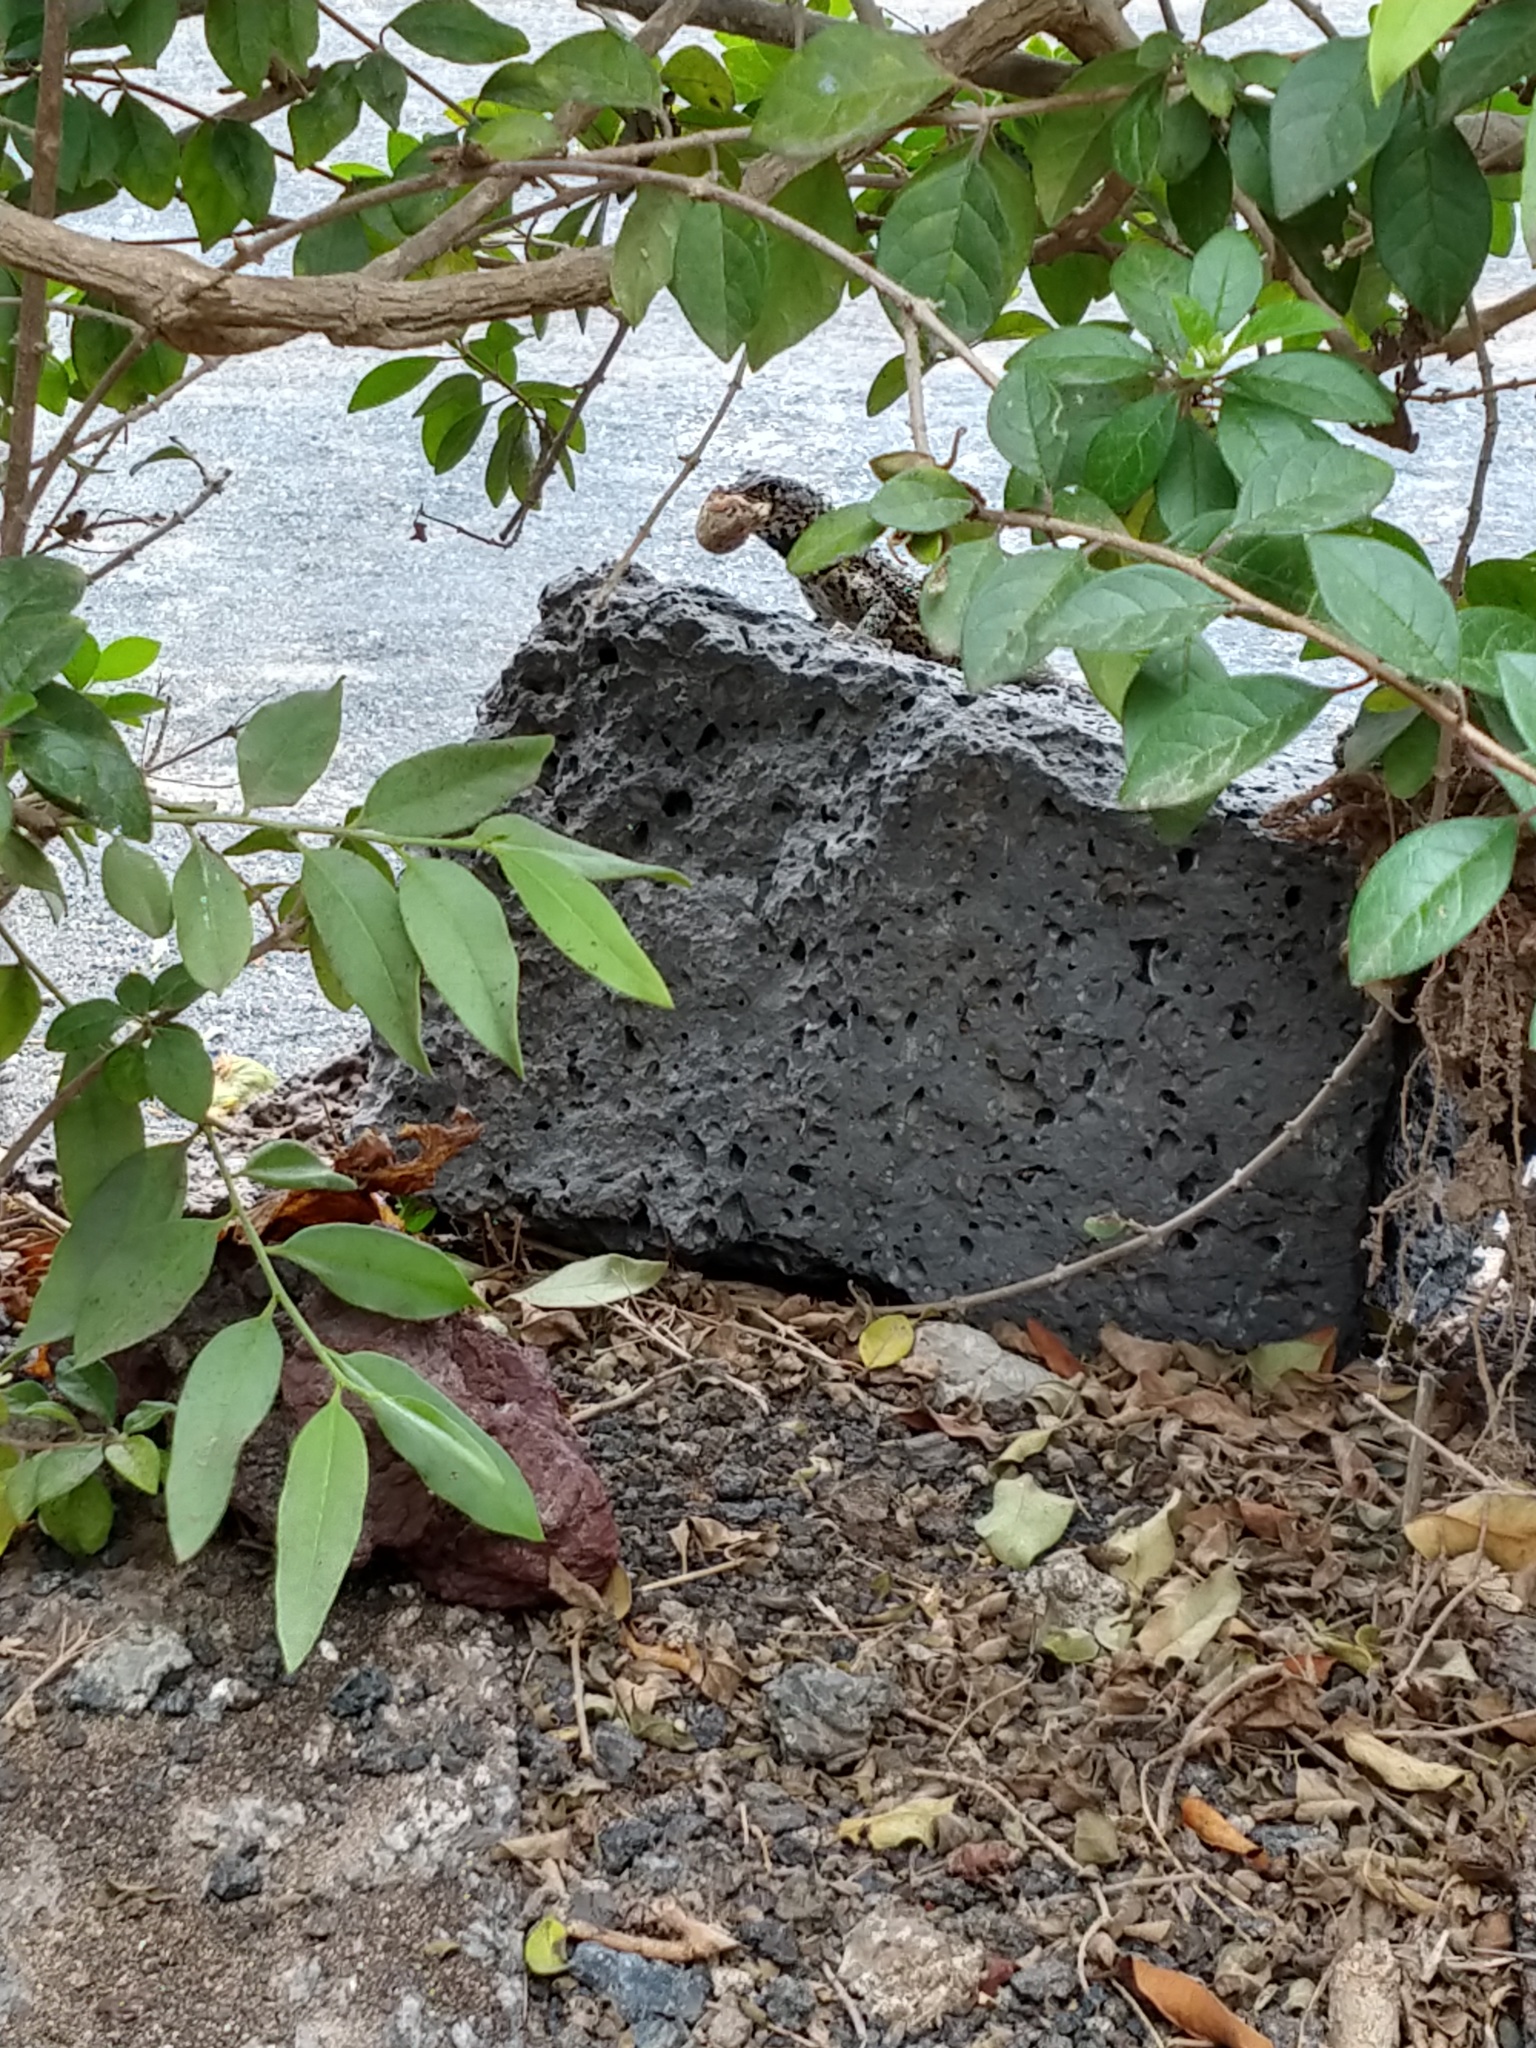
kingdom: Animalia
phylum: Chordata
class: Squamata
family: Tropiduridae
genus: Microlophus
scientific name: Microlophus albemarlensis
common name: Galapagos lava lizard
